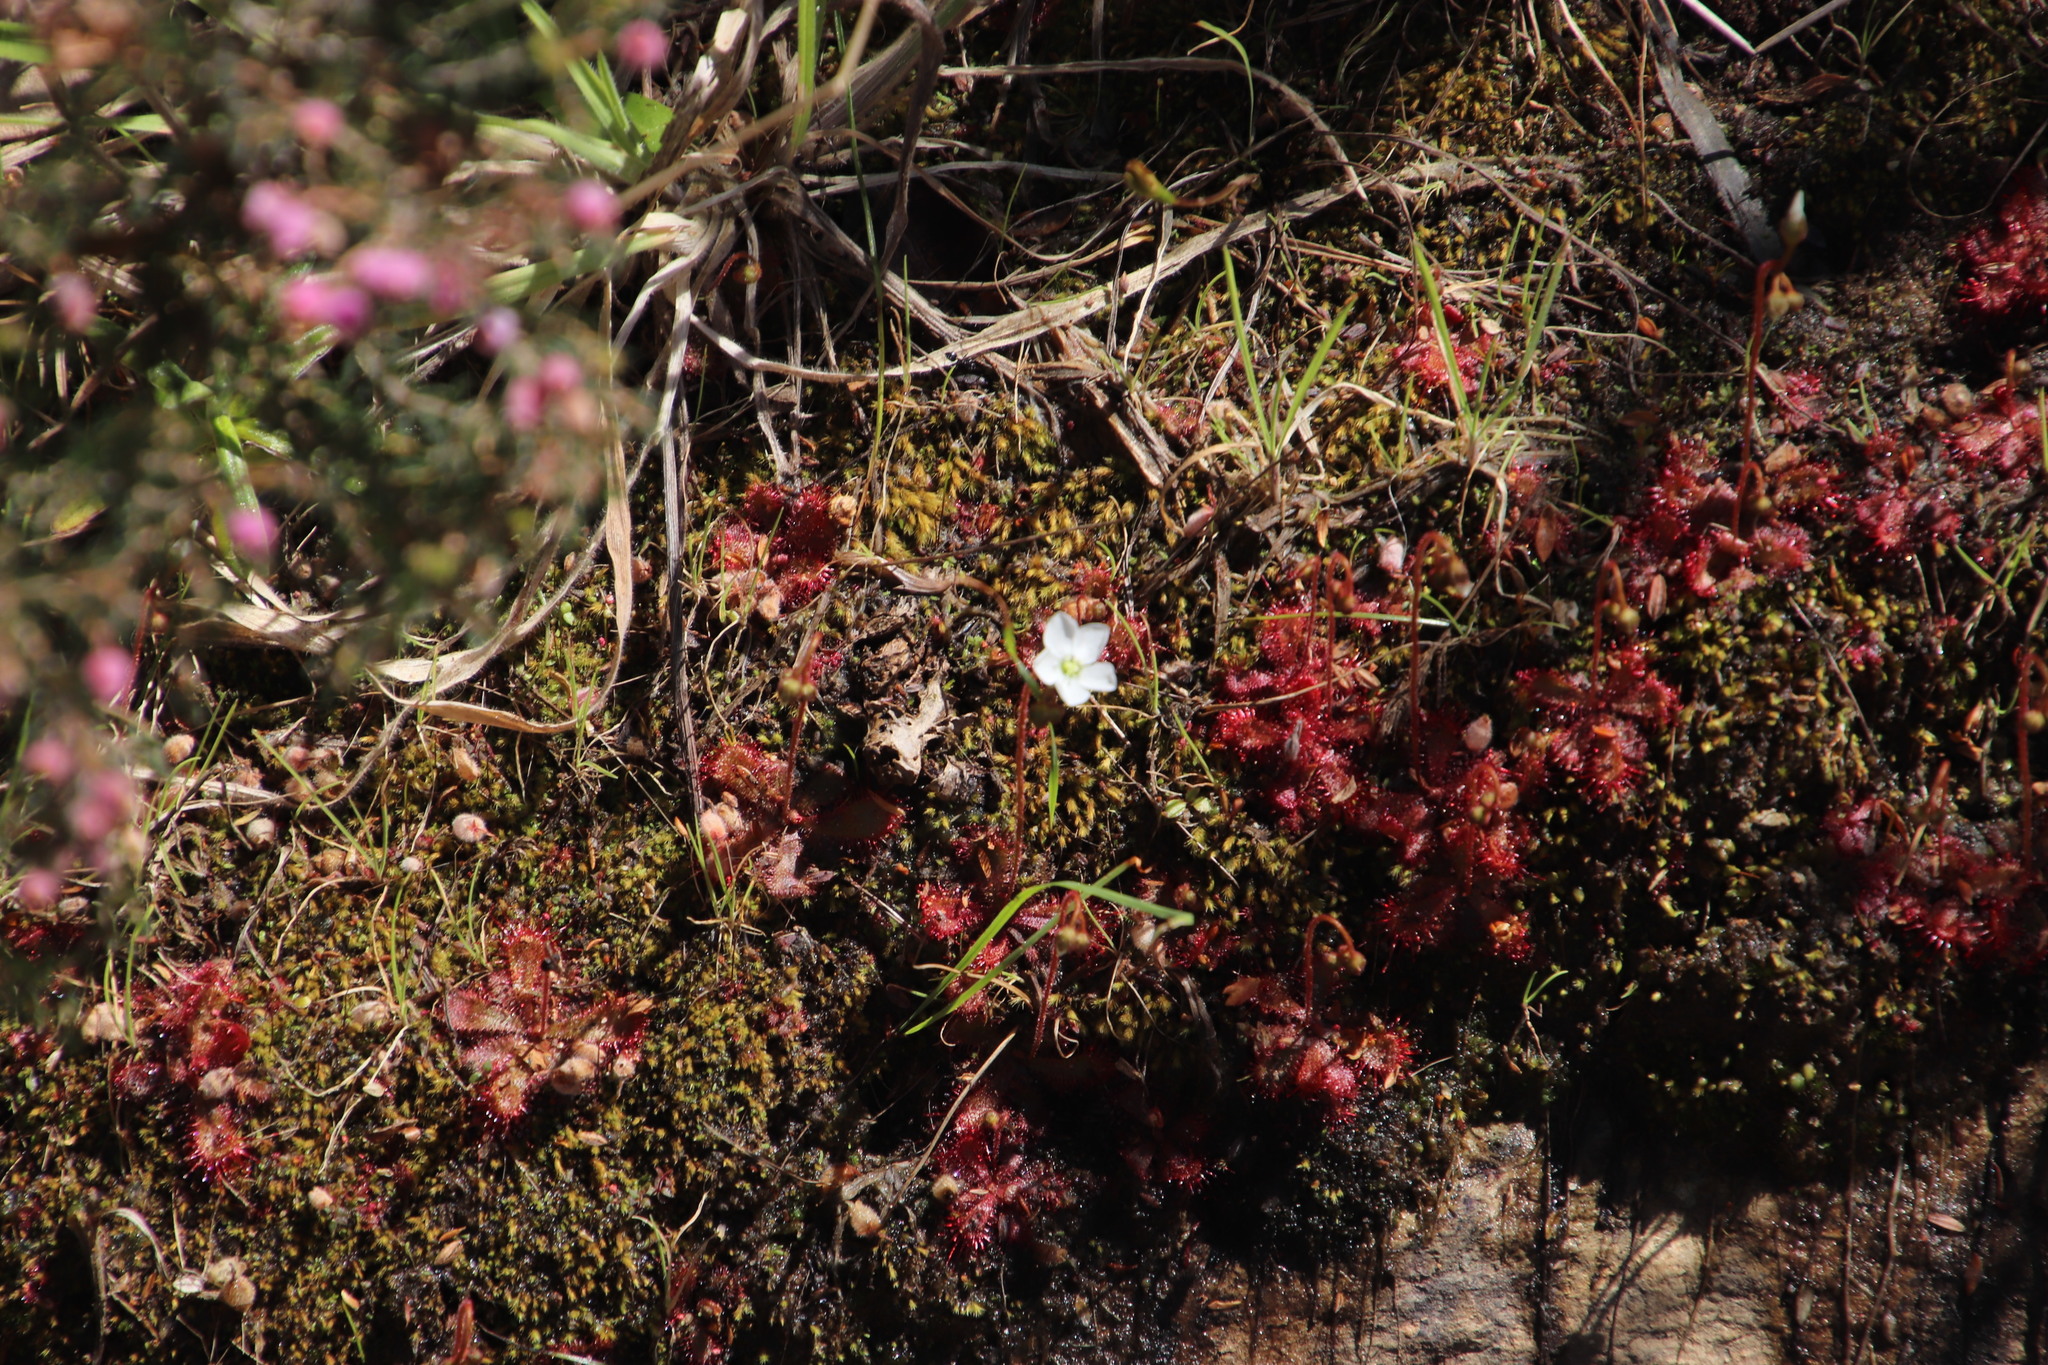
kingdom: Plantae
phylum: Tracheophyta
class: Magnoliopsida
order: Caryophyllales
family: Droseraceae
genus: Drosera
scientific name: Drosera trinervia
